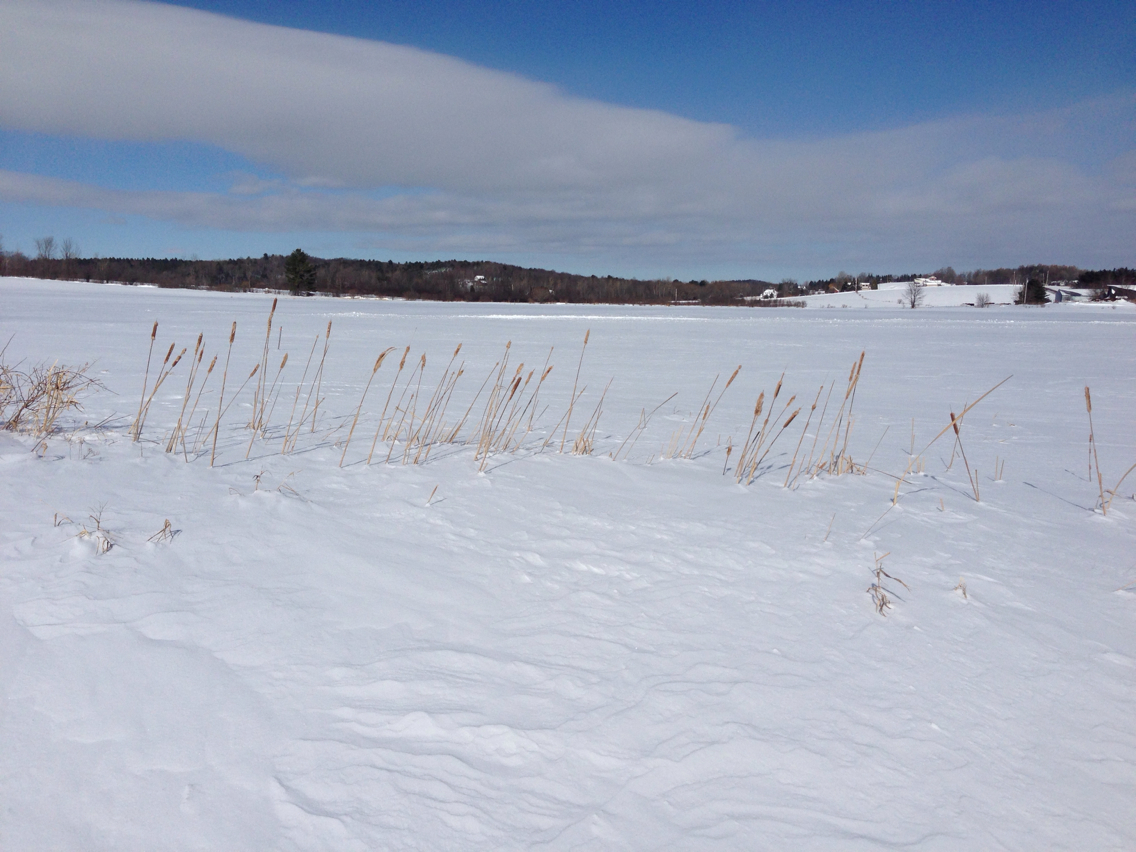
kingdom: Plantae
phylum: Tracheophyta
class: Liliopsida
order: Poales
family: Typhaceae
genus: Typha
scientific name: Typha
